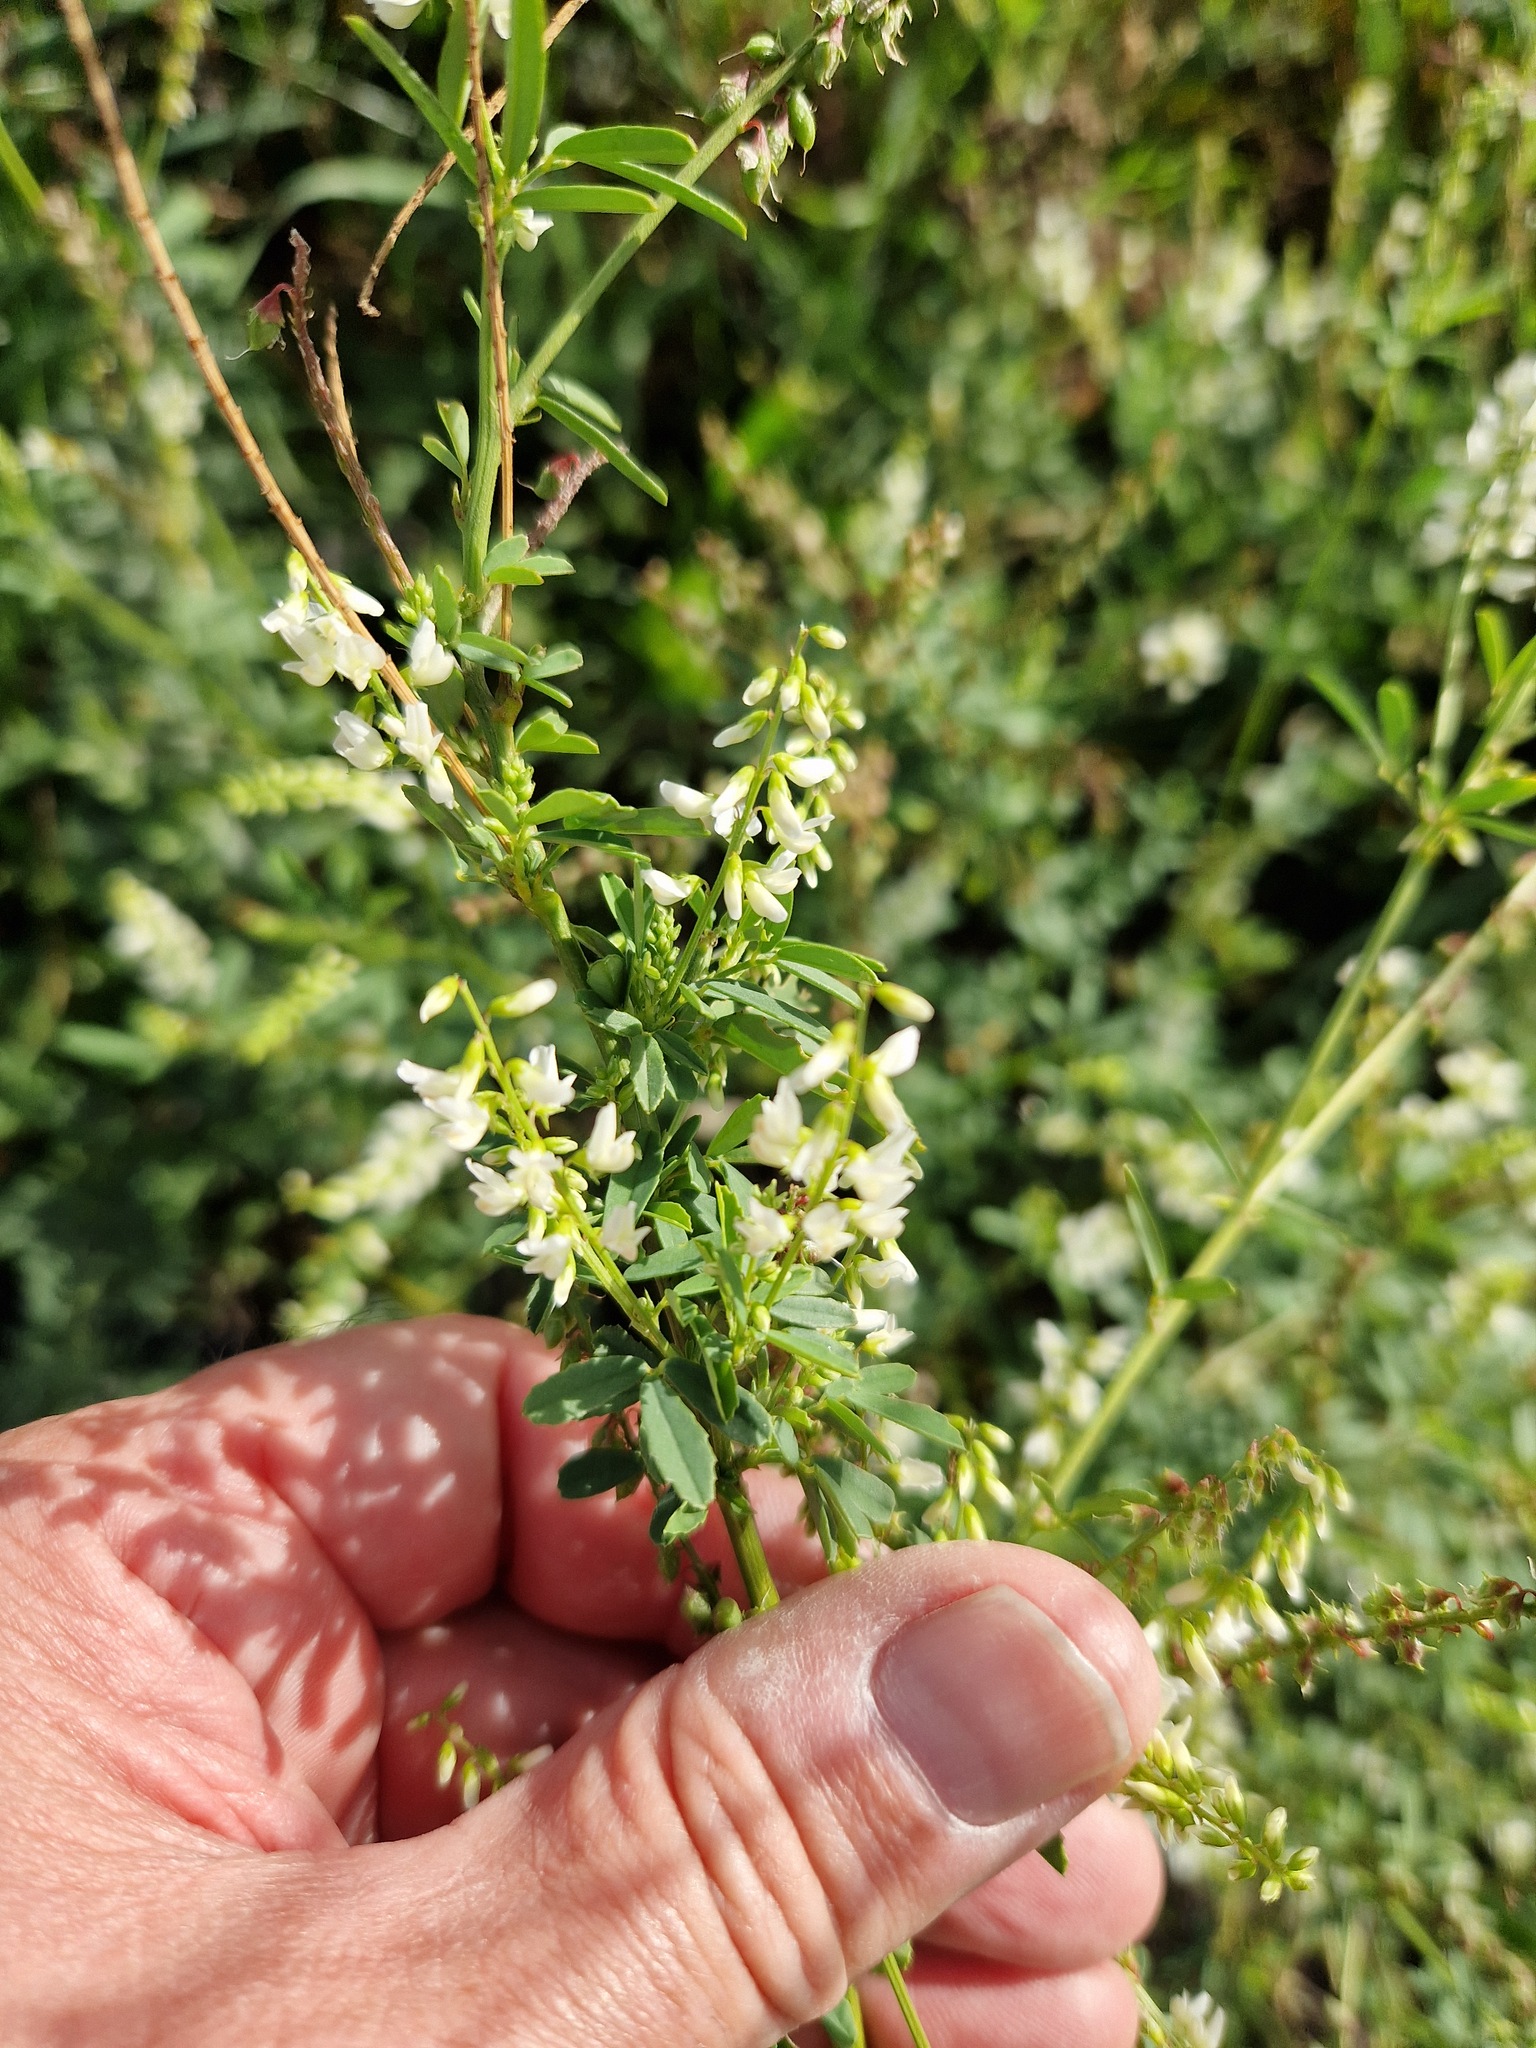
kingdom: Plantae
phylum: Tracheophyta
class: Magnoliopsida
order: Fabales
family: Fabaceae
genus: Melilotus
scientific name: Melilotus albus
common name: White melilot
